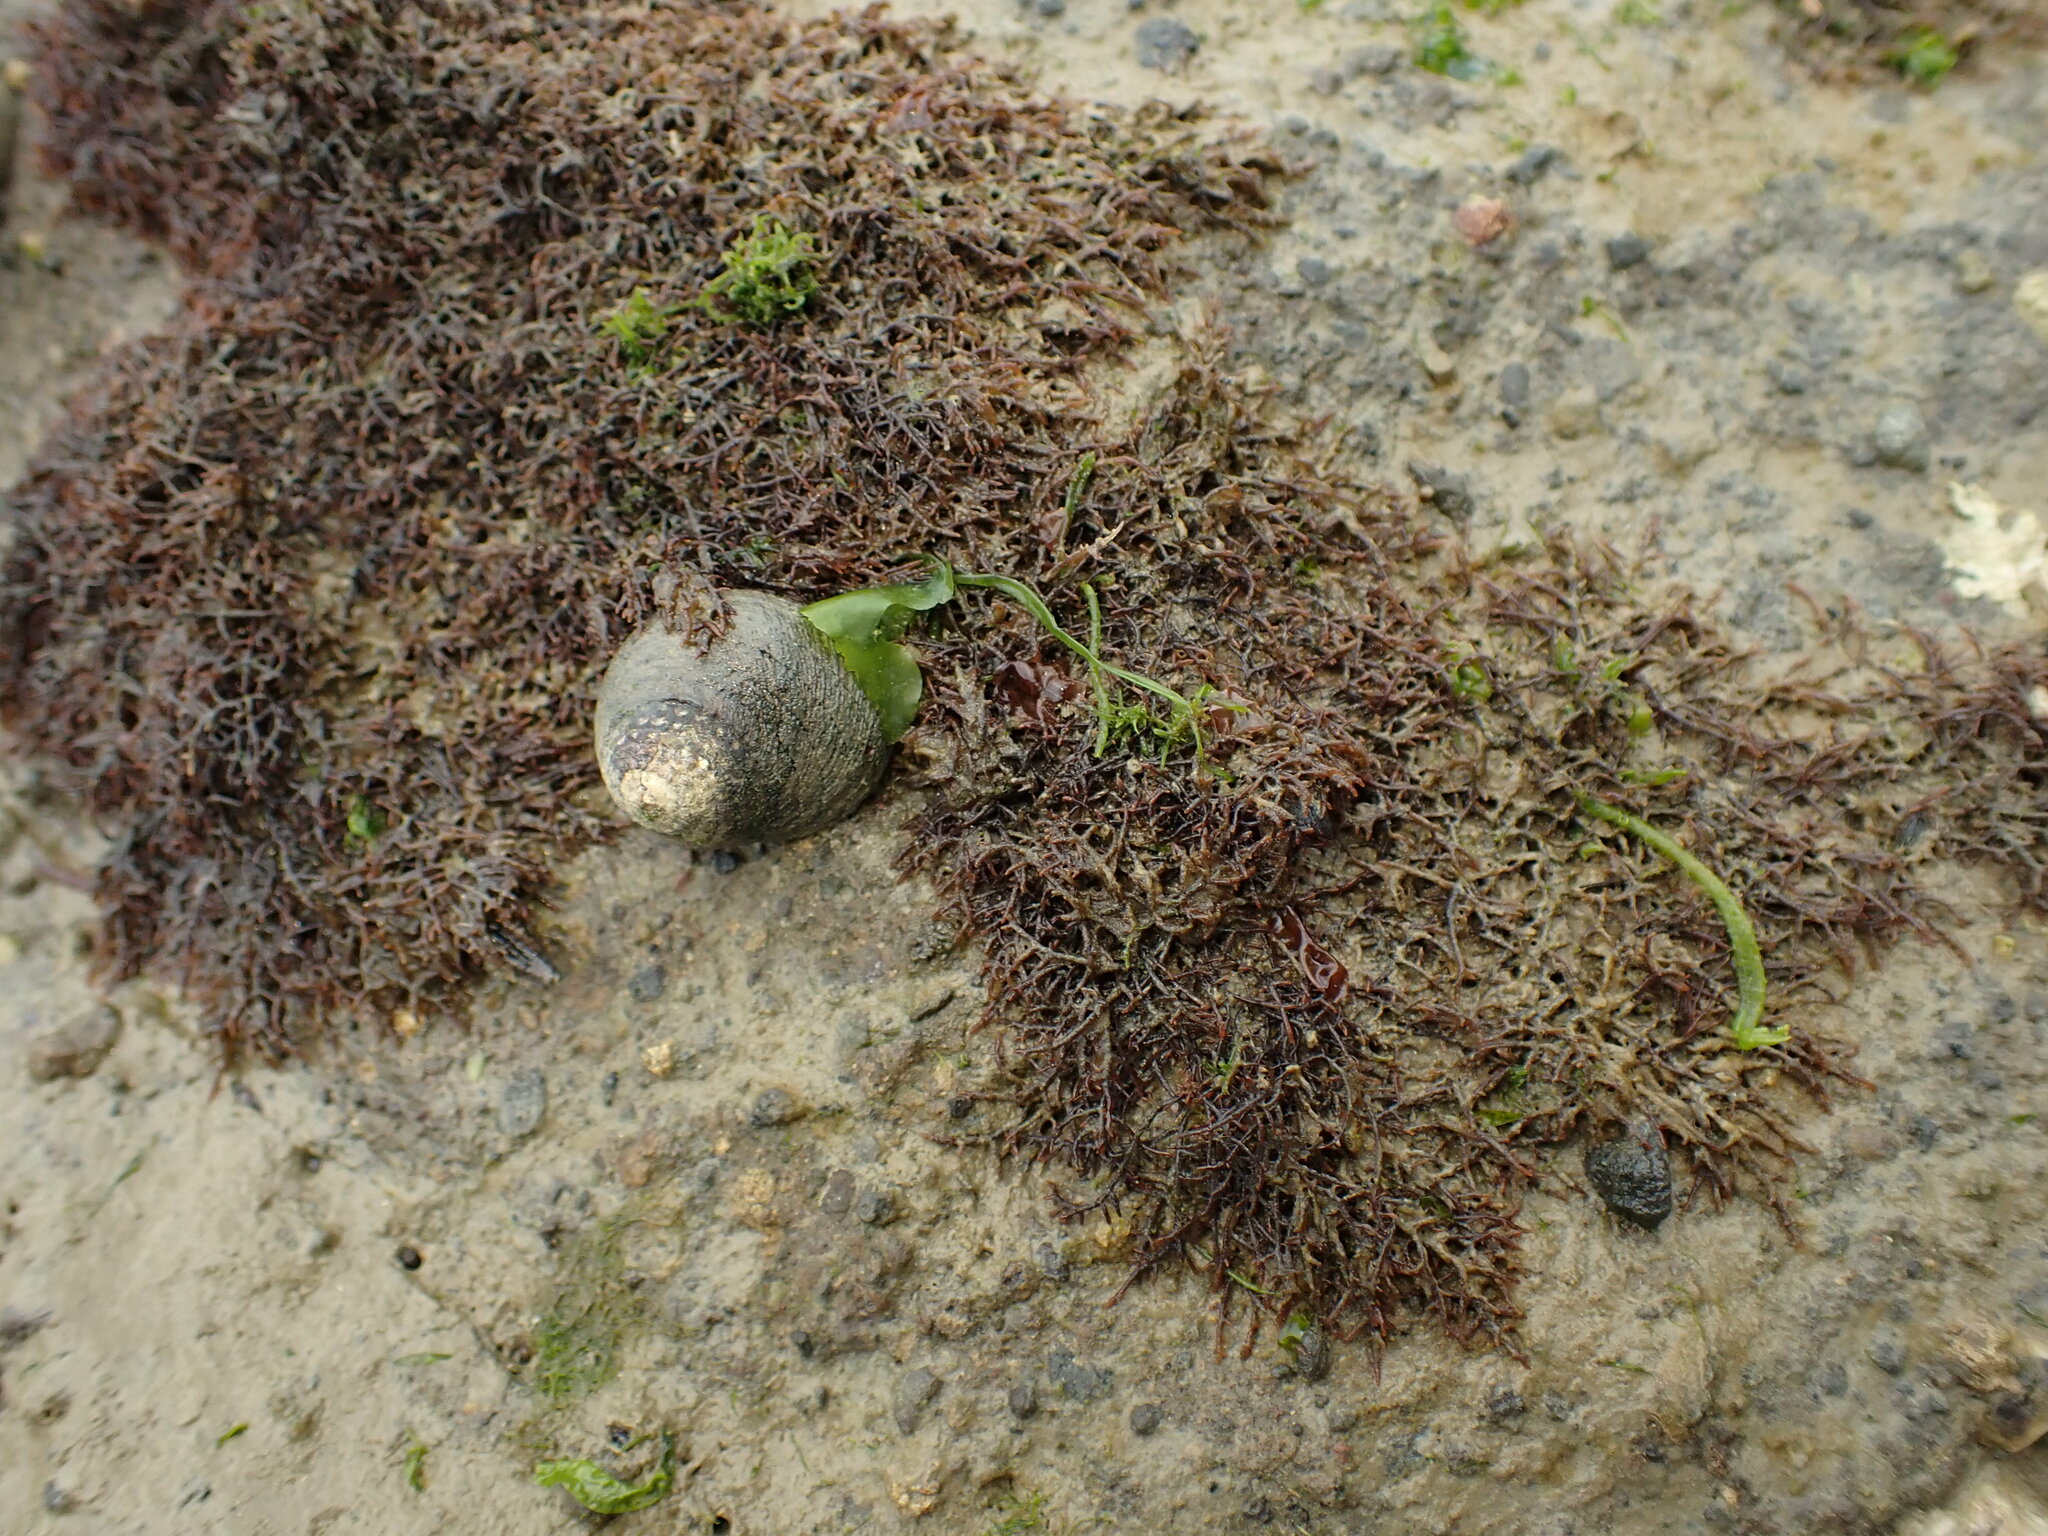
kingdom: Animalia
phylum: Mollusca
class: Gastropoda
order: Trochida
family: Trochidae
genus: Diloma
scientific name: Diloma aethiops
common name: Scorched monodont
